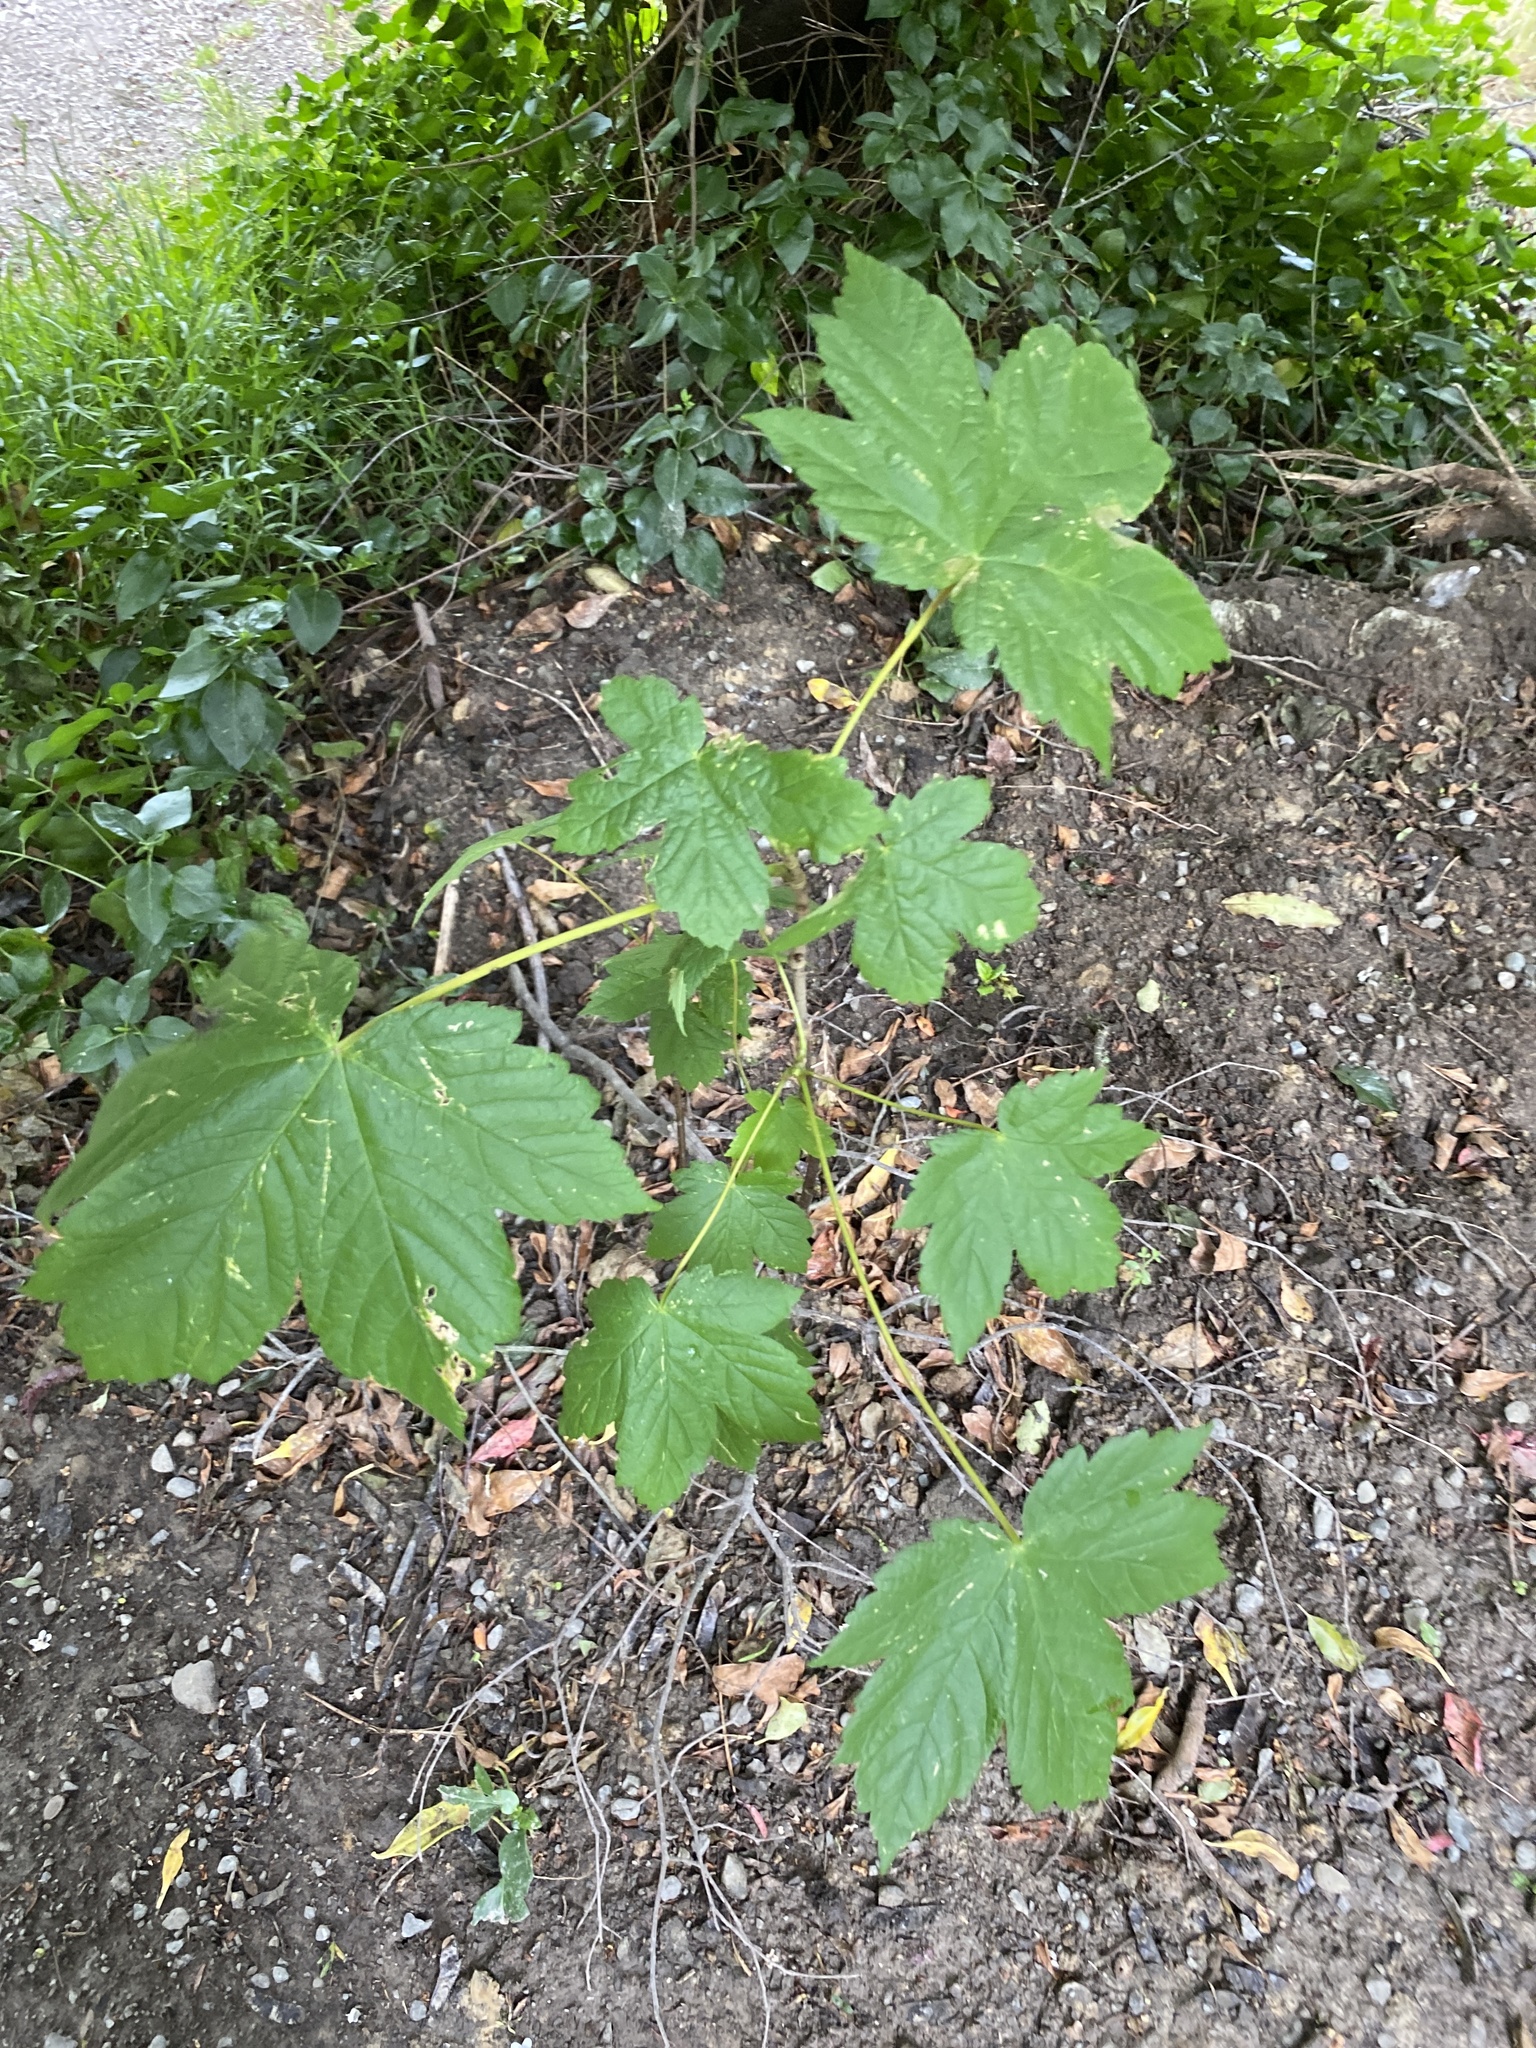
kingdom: Plantae
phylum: Tracheophyta
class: Magnoliopsida
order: Sapindales
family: Sapindaceae
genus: Acer
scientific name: Acer pseudoplatanus
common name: Sycamore
